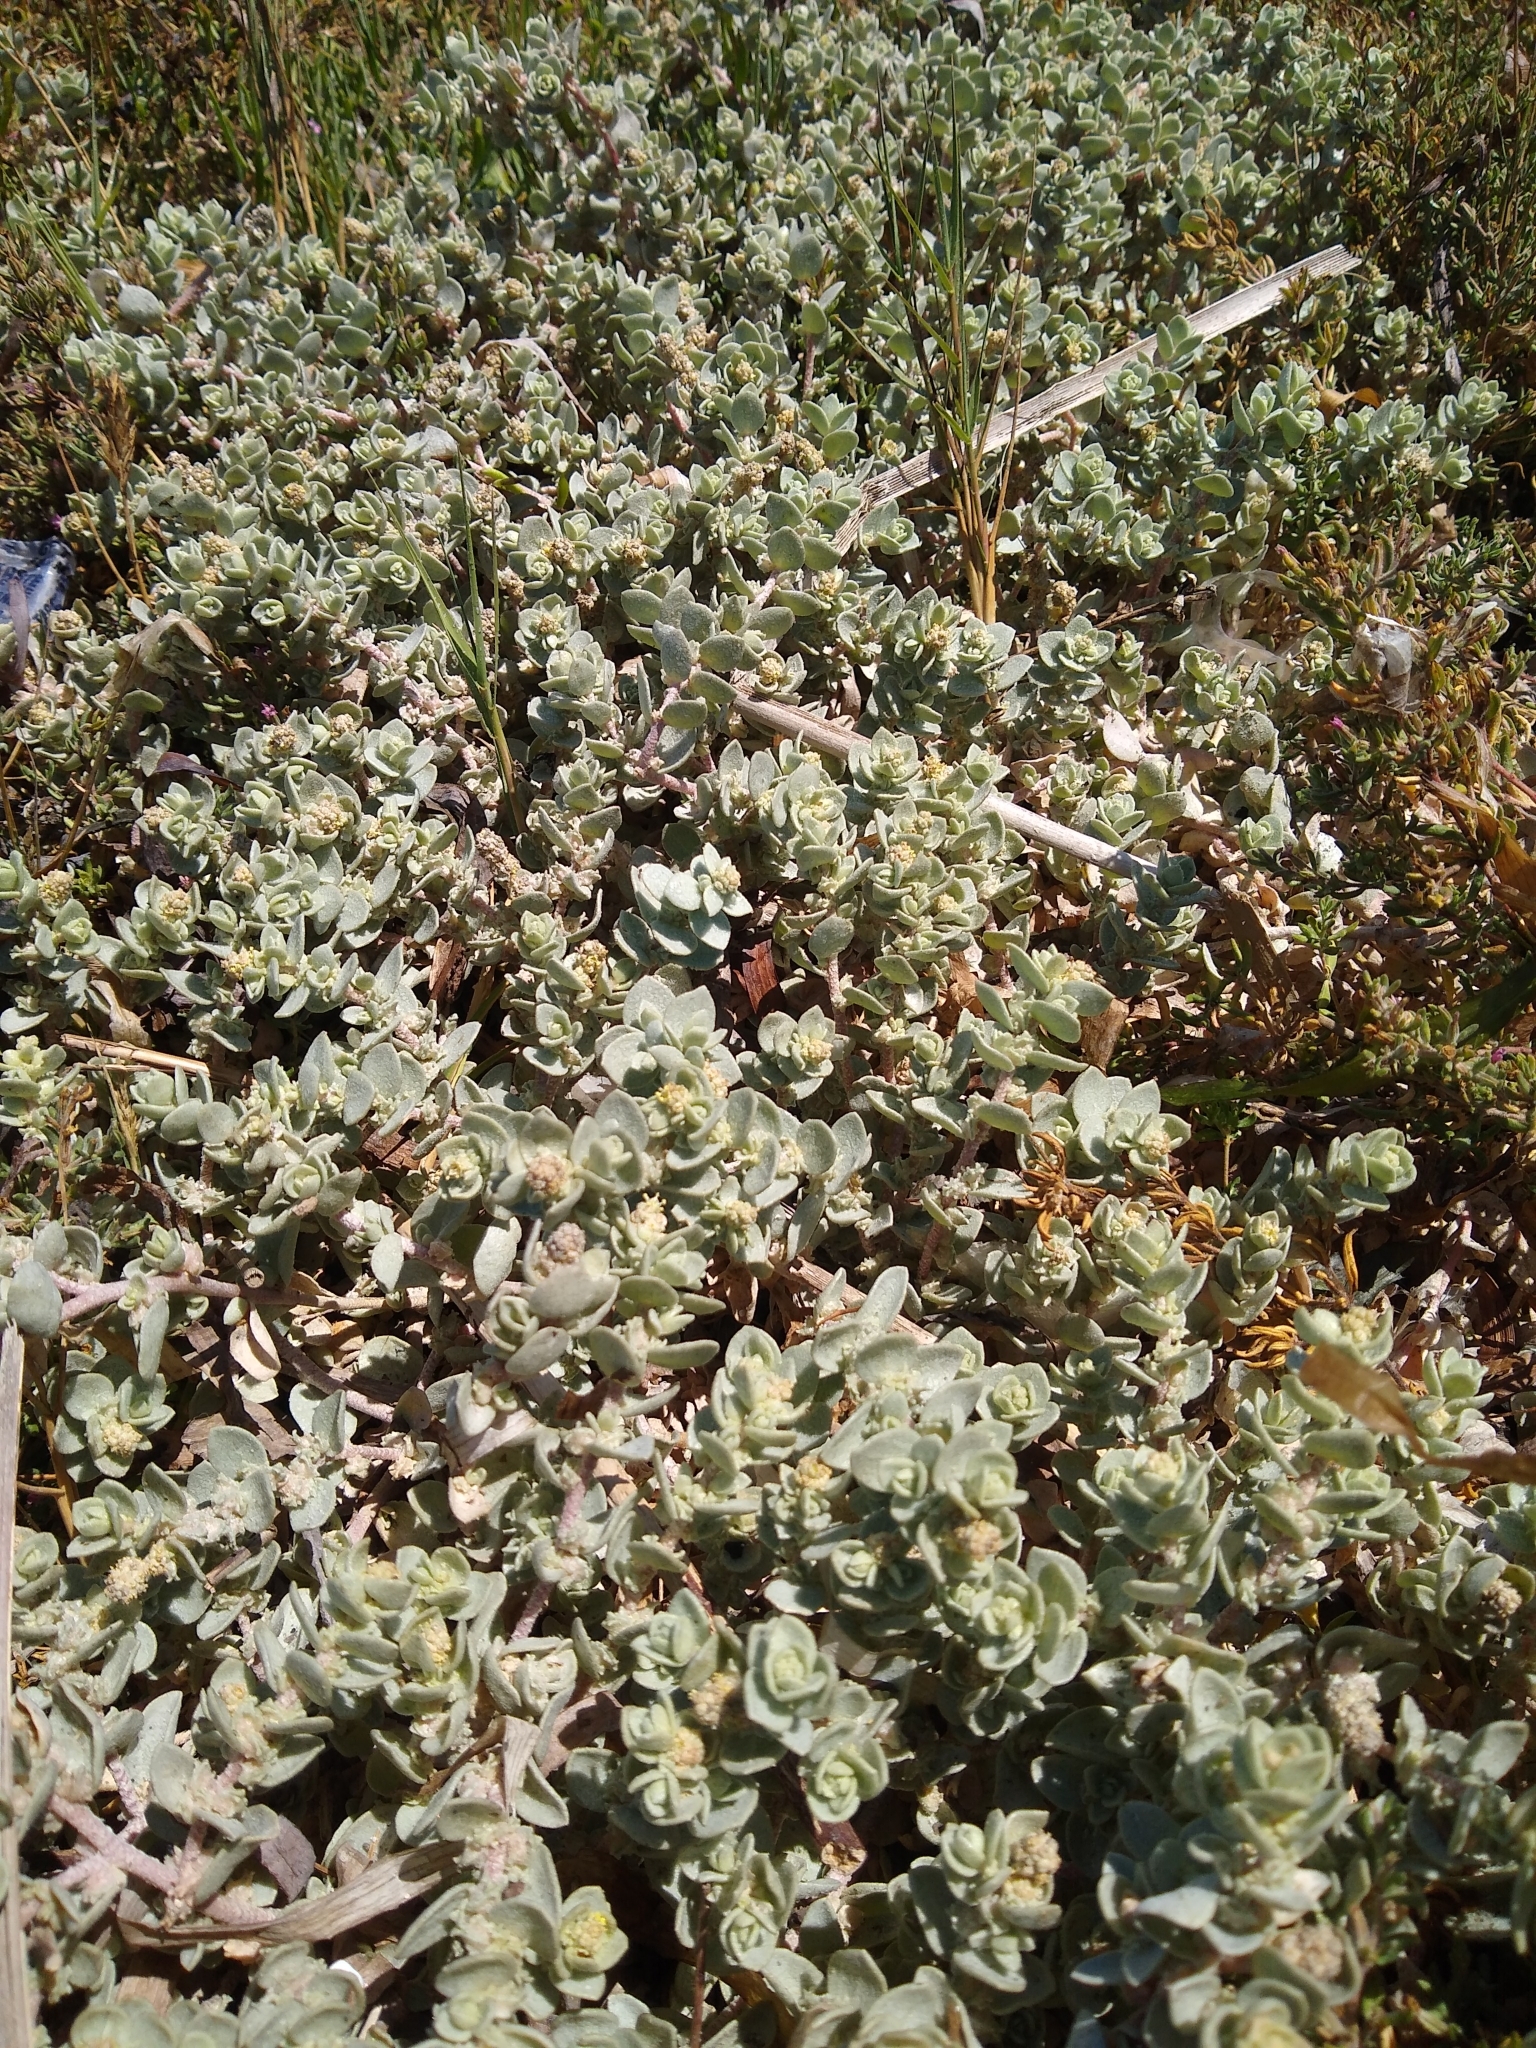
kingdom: Plantae
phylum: Tracheophyta
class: Magnoliopsida
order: Caryophyllales
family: Amaranthaceae
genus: Atriplex
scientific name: Atriplex leucophylla
